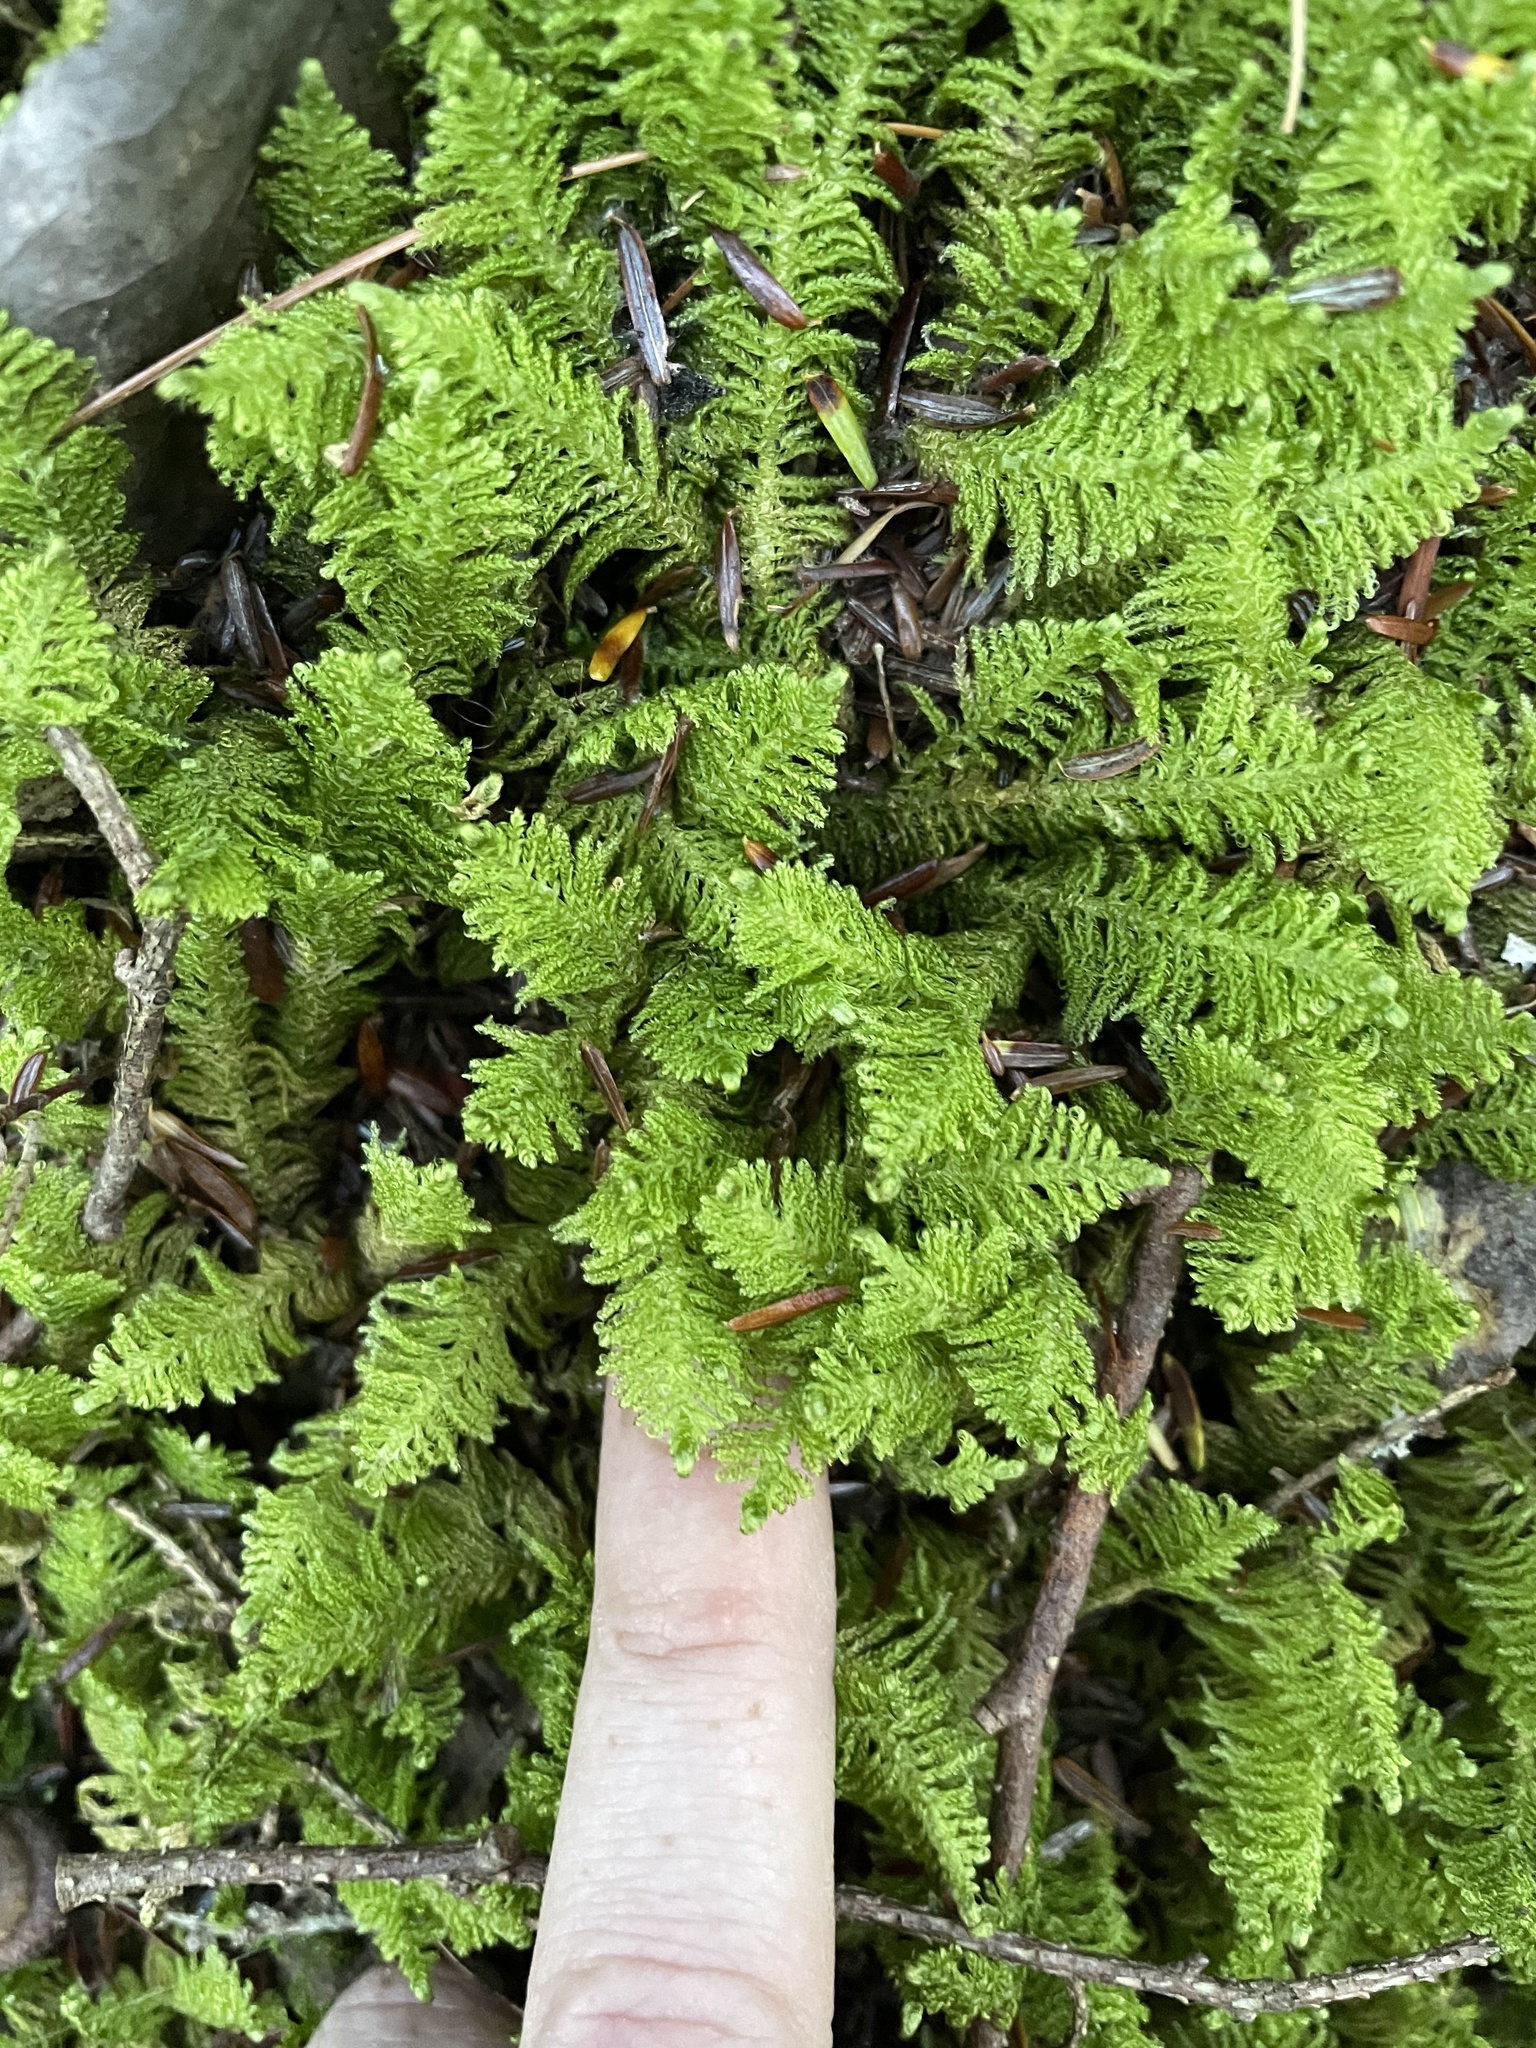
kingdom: Plantae
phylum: Bryophyta
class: Bryopsida
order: Hypnales
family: Pylaisiaceae
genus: Ptilium
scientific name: Ptilium crista-castrensis
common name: Knight's plume moss
